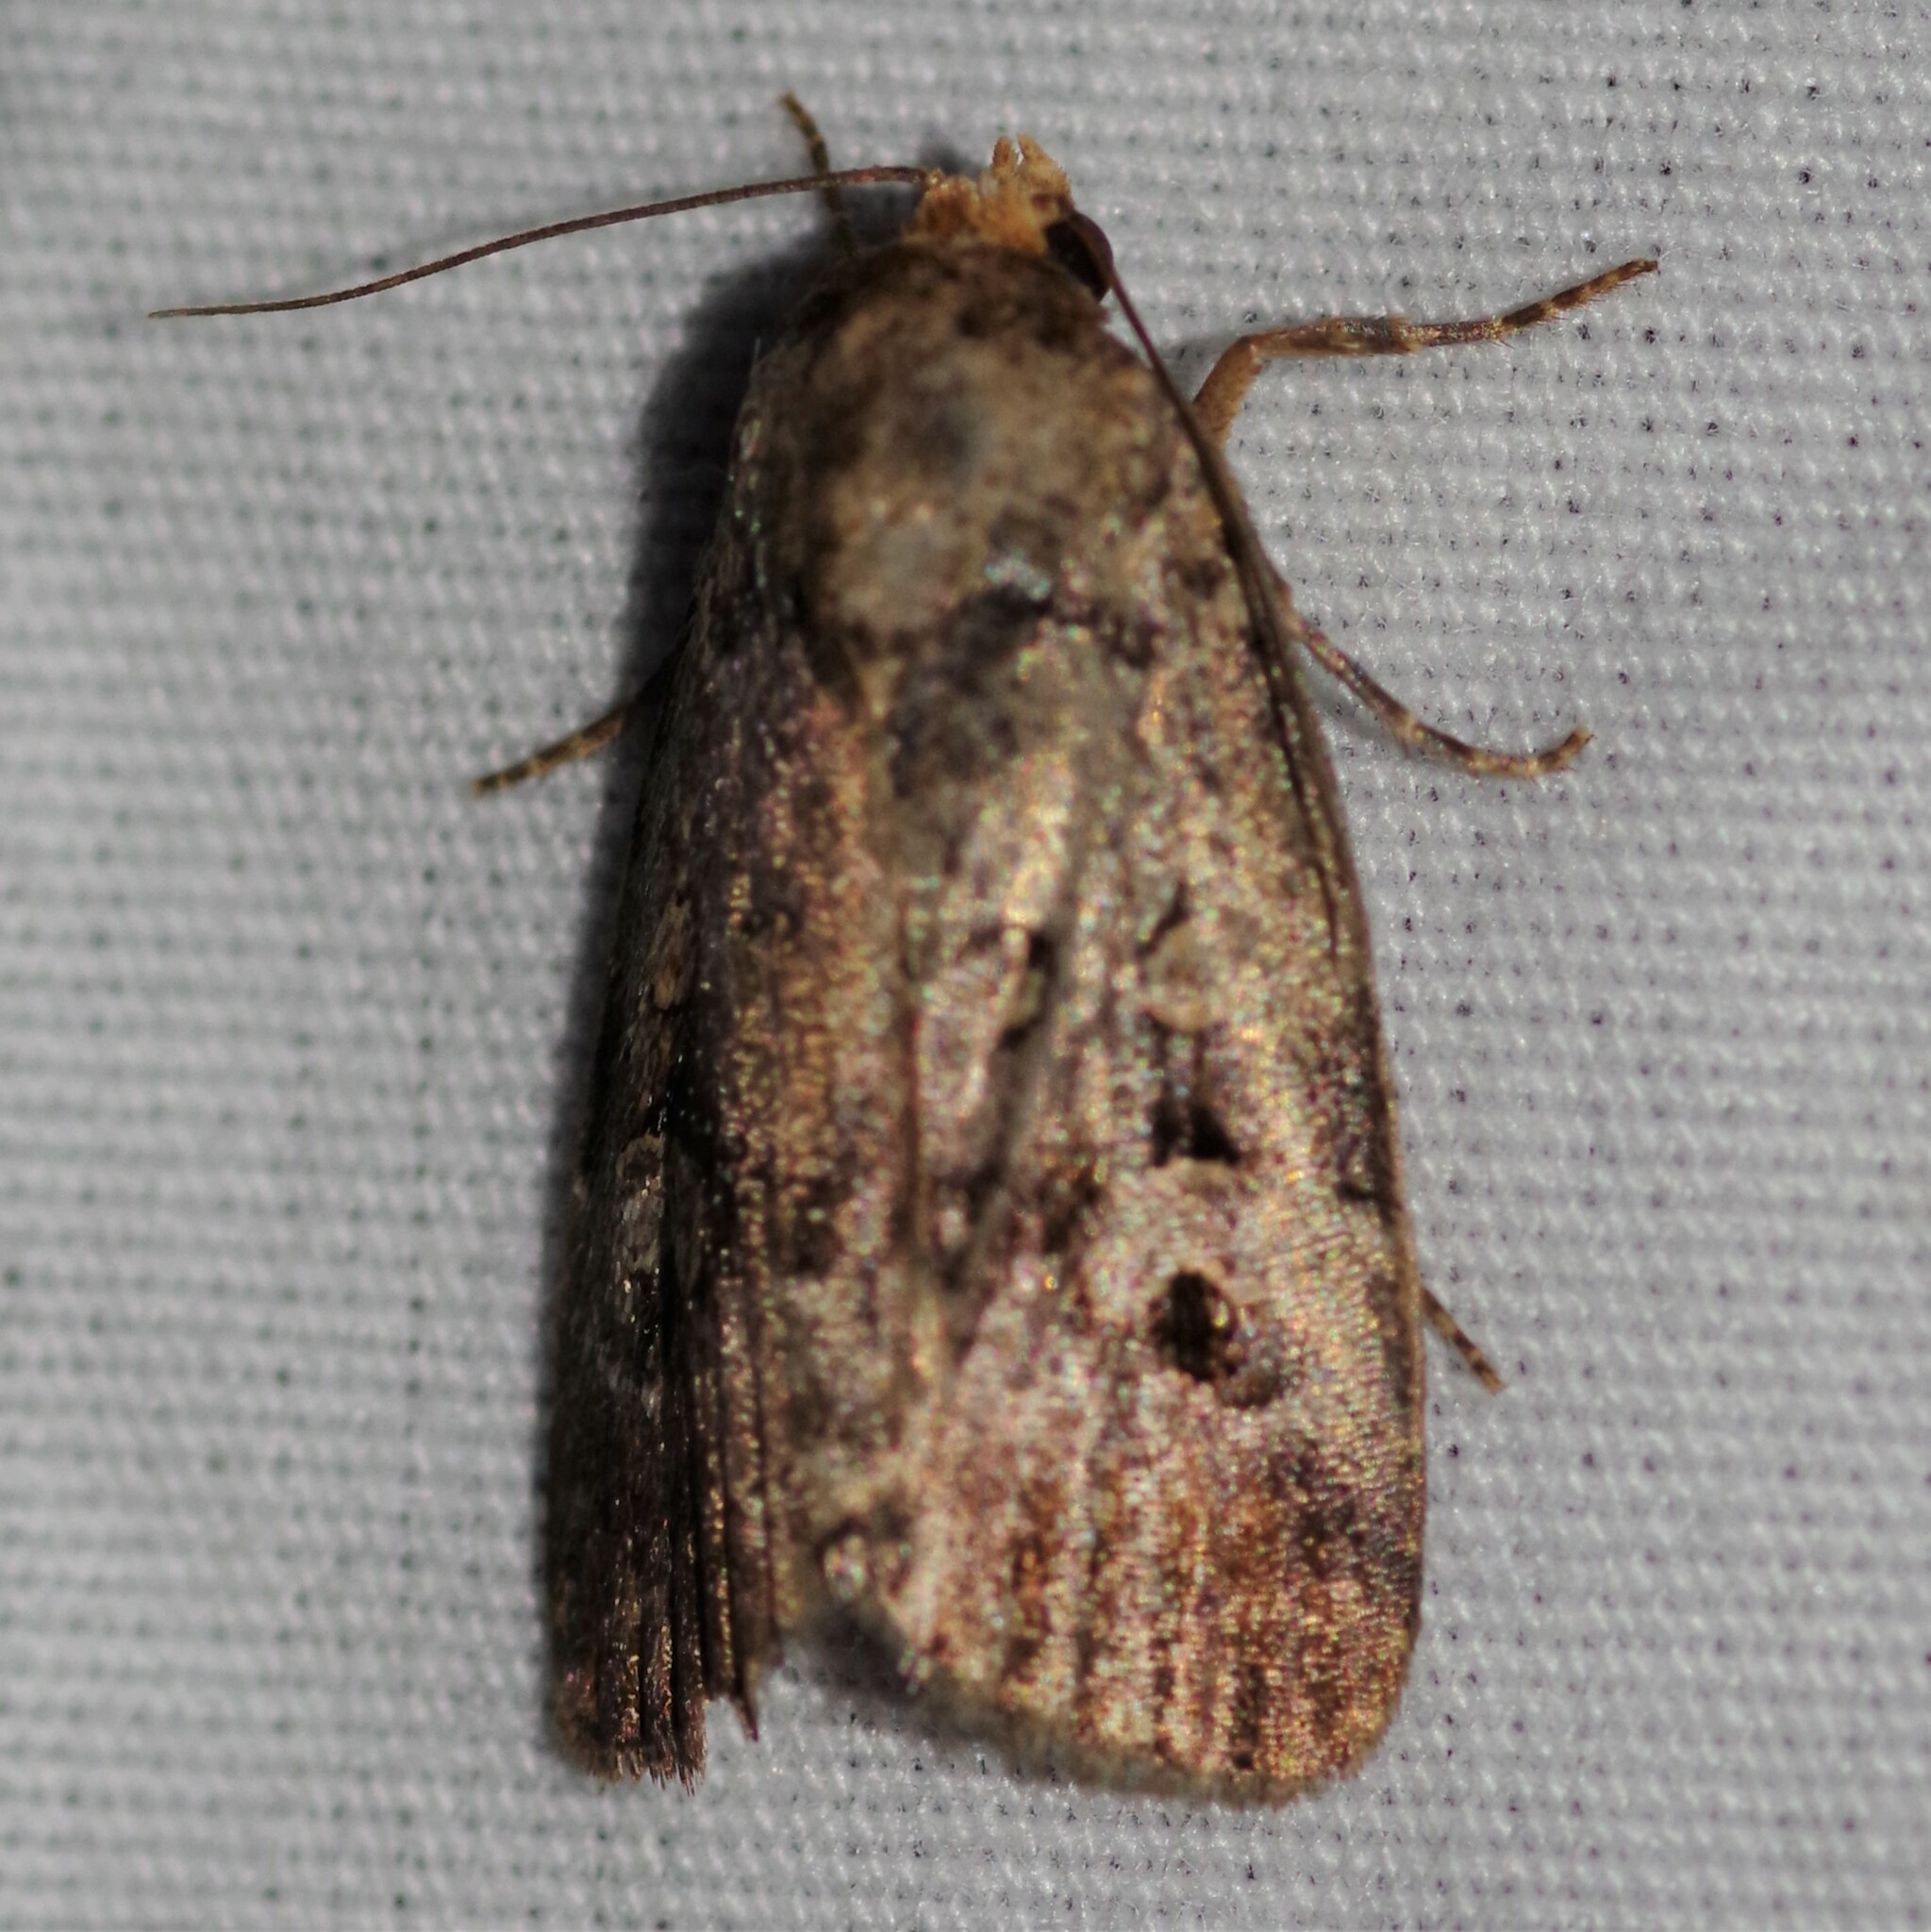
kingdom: Animalia
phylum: Arthropoda
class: Insecta
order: Lepidoptera
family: Noctuidae
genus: Elaphria
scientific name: Elaphria
